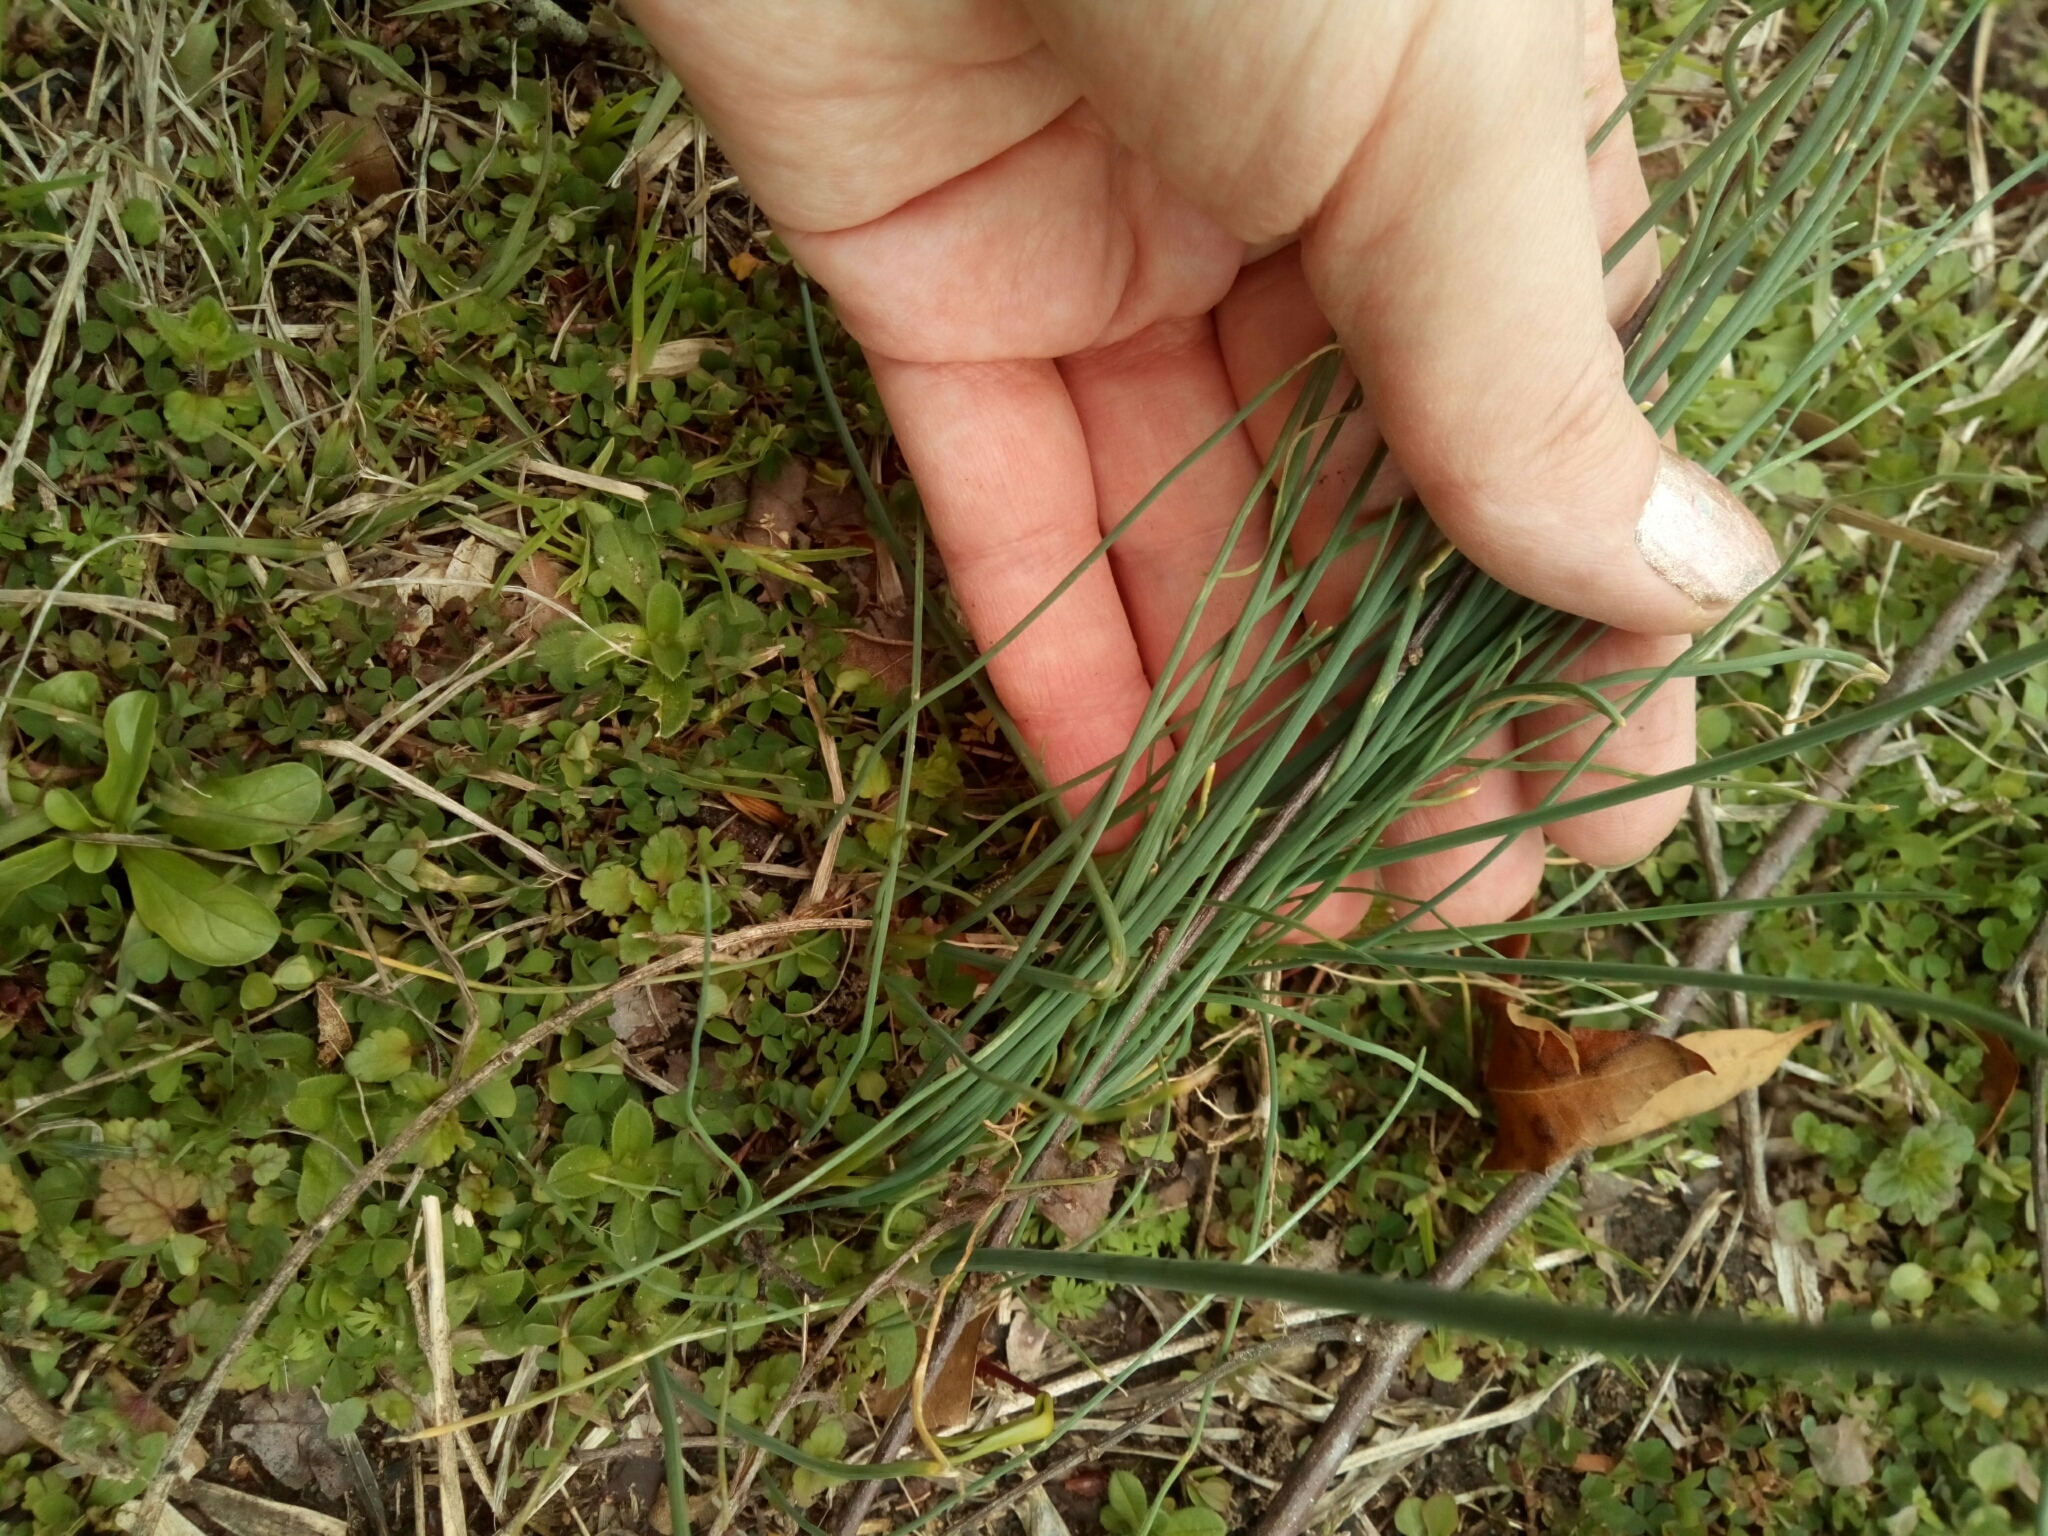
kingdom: Plantae
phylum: Tracheophyta
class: Liliopsida
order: Asparagales
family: Amaryllidaceae
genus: Allium
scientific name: Allium vineale
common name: Crow garlic
